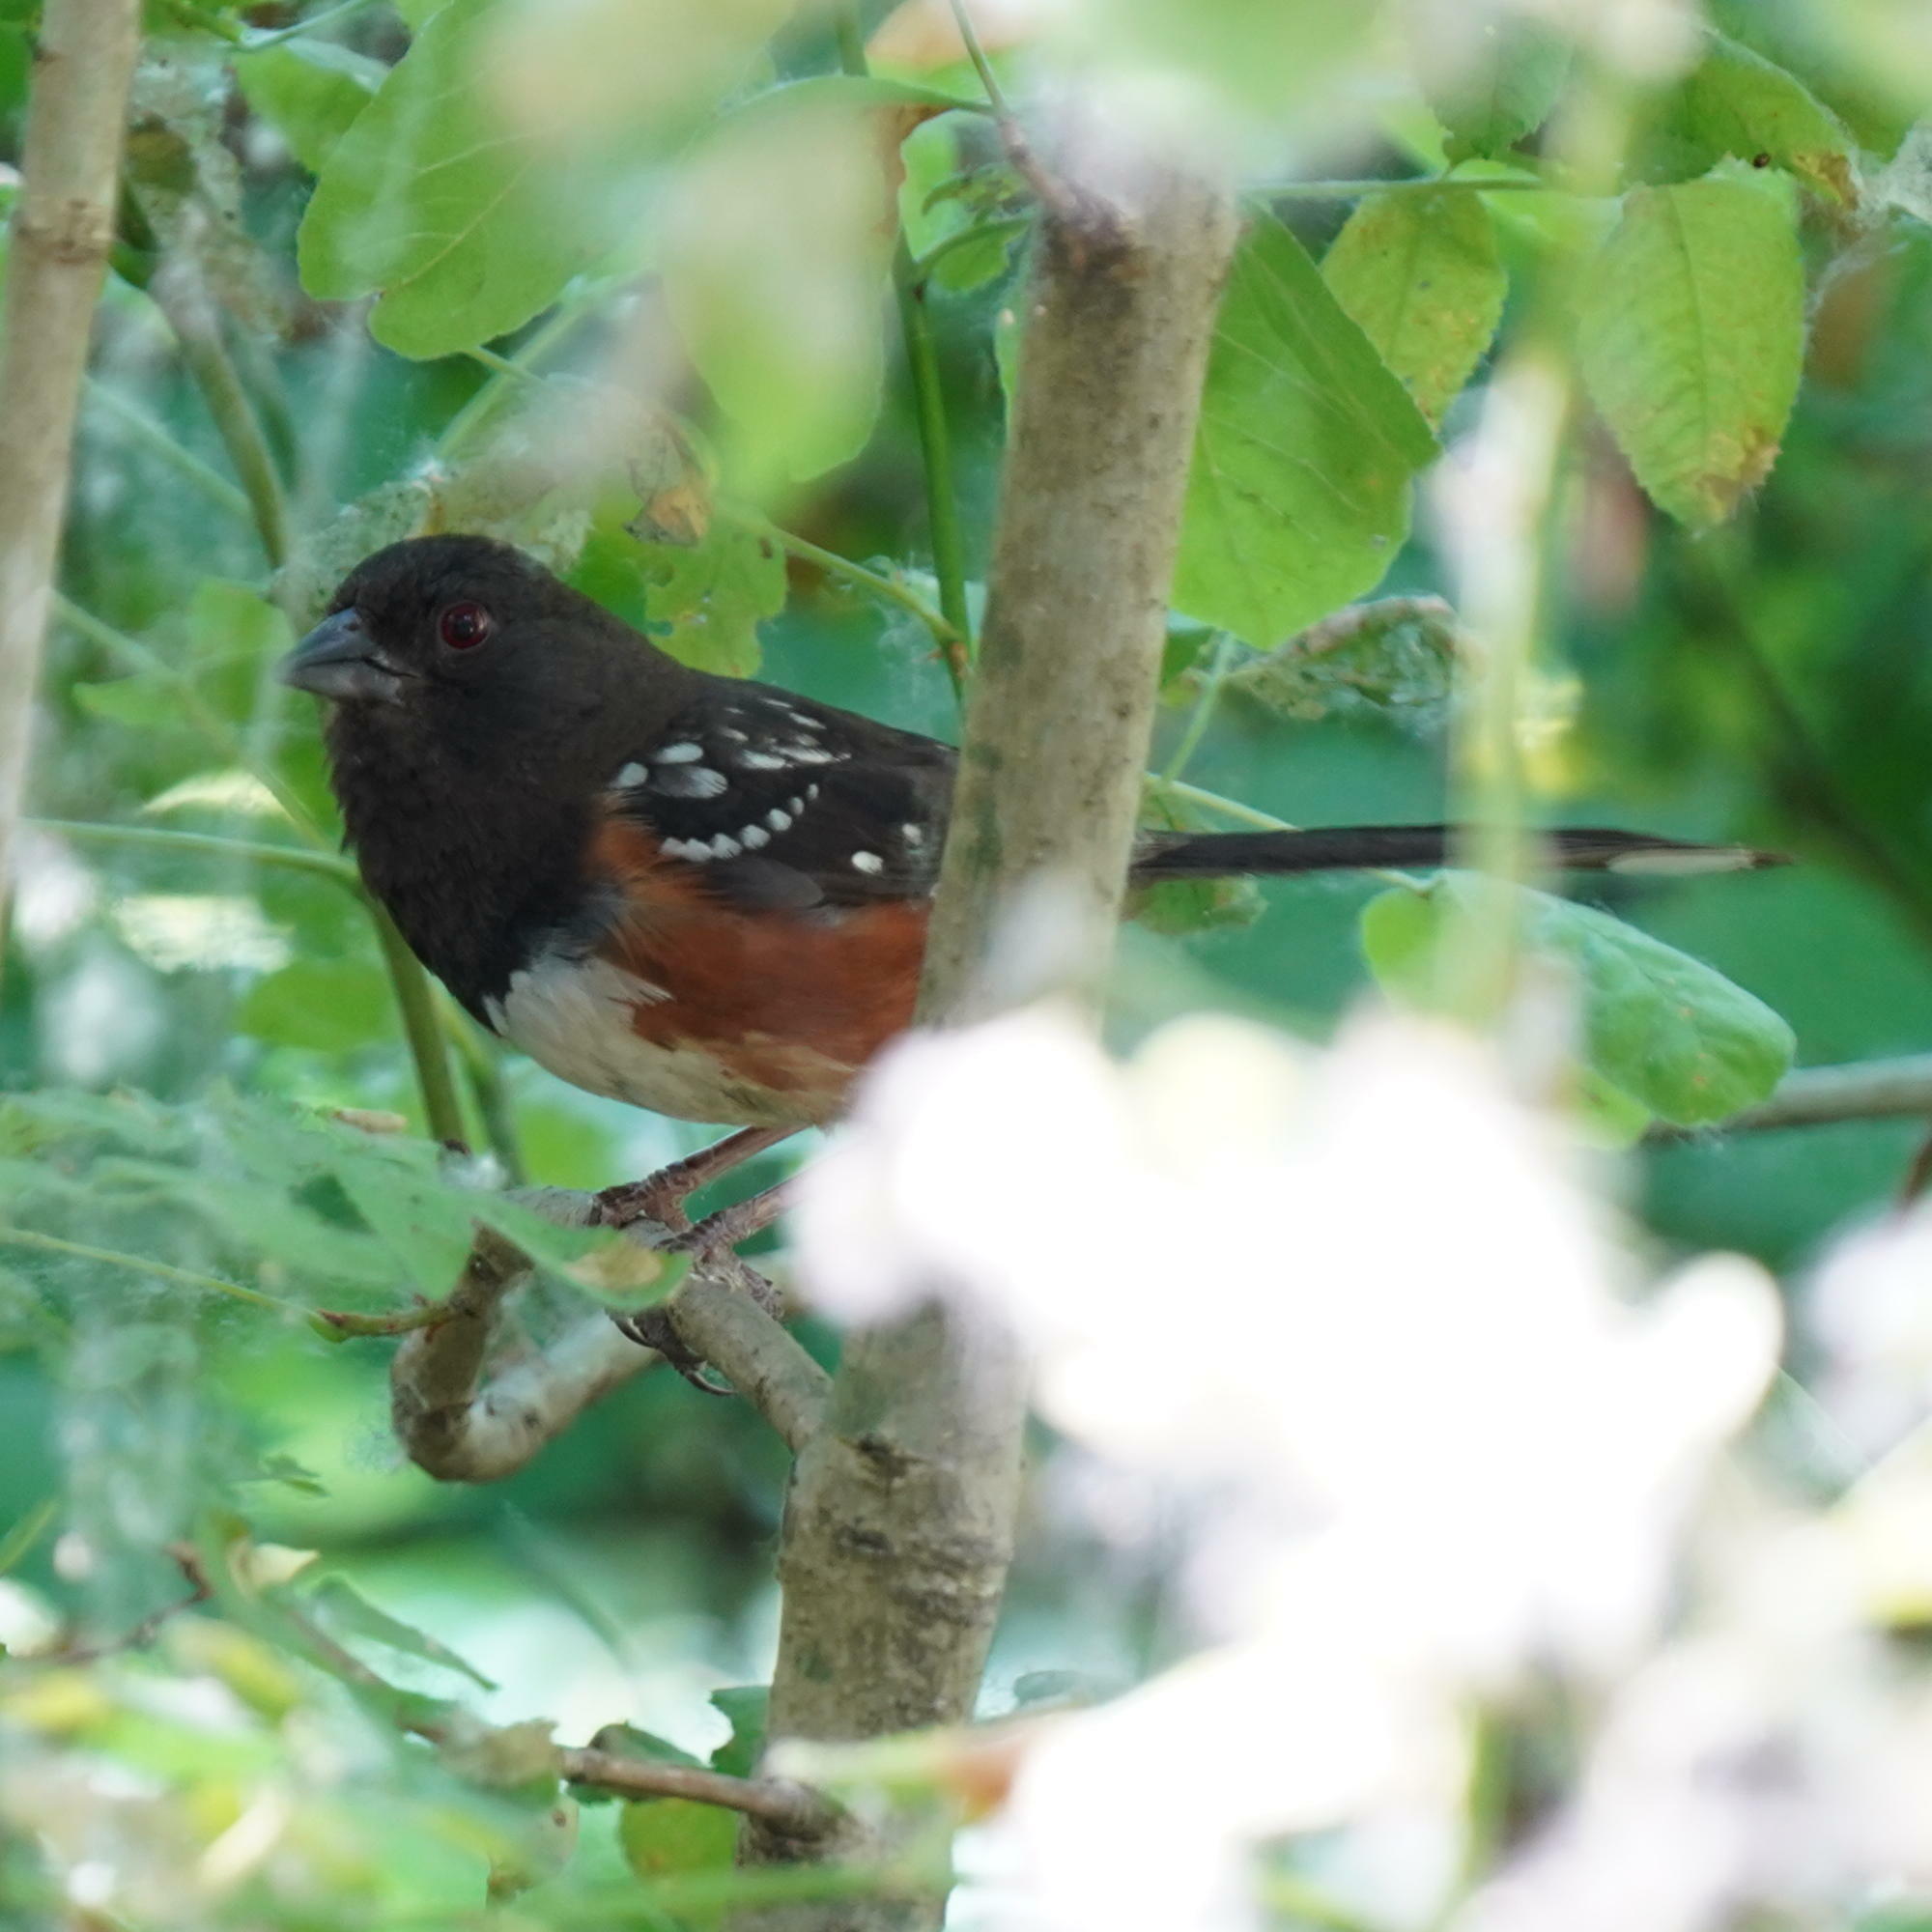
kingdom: Animalia
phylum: Chordata
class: Aves
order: Passeriformes
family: Passerellidae
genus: Pipilo
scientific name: Pipilo maculatus
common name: Spotted towhee
